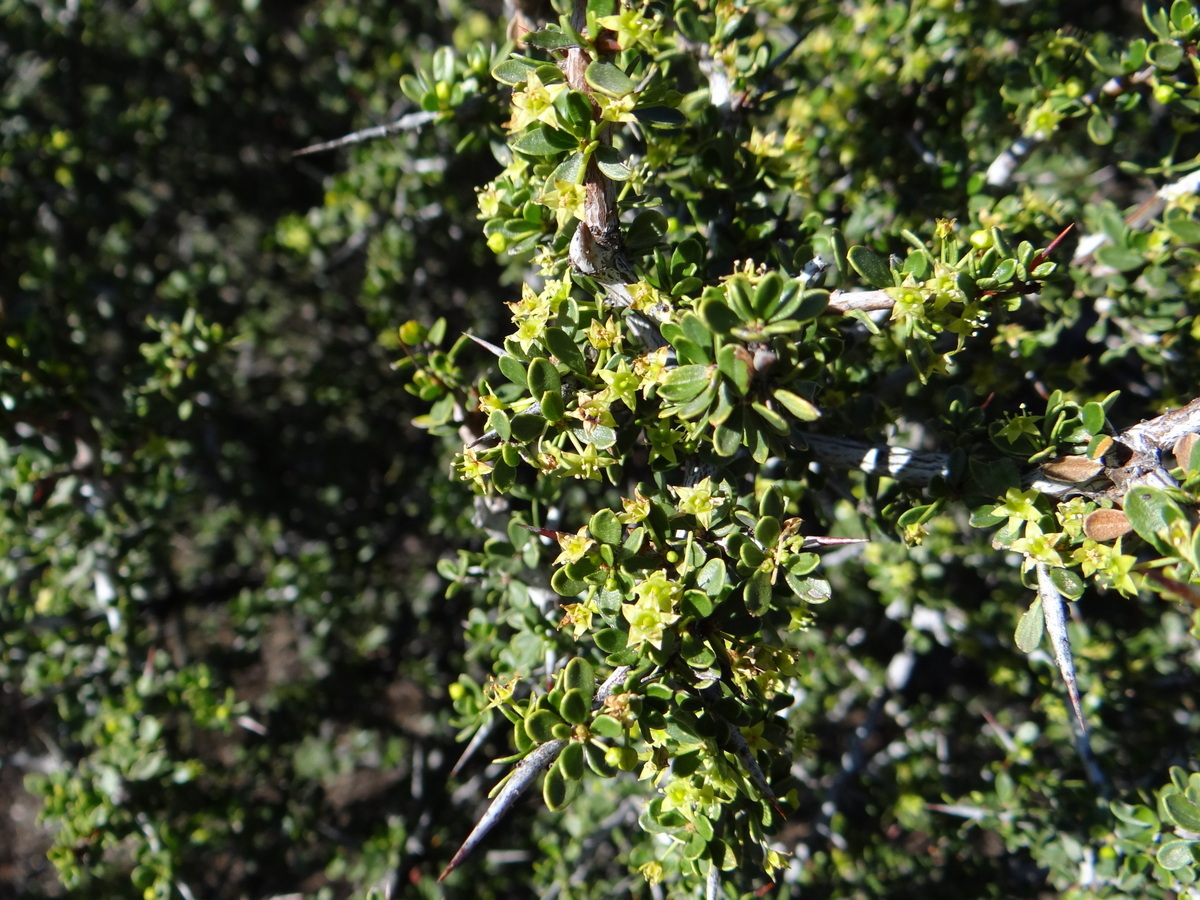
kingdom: Plantae
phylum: Tracheophyta
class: Magnoliopsida
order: Rosales
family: Rhamnaceae
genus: Condalia
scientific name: Condalia microphylla
